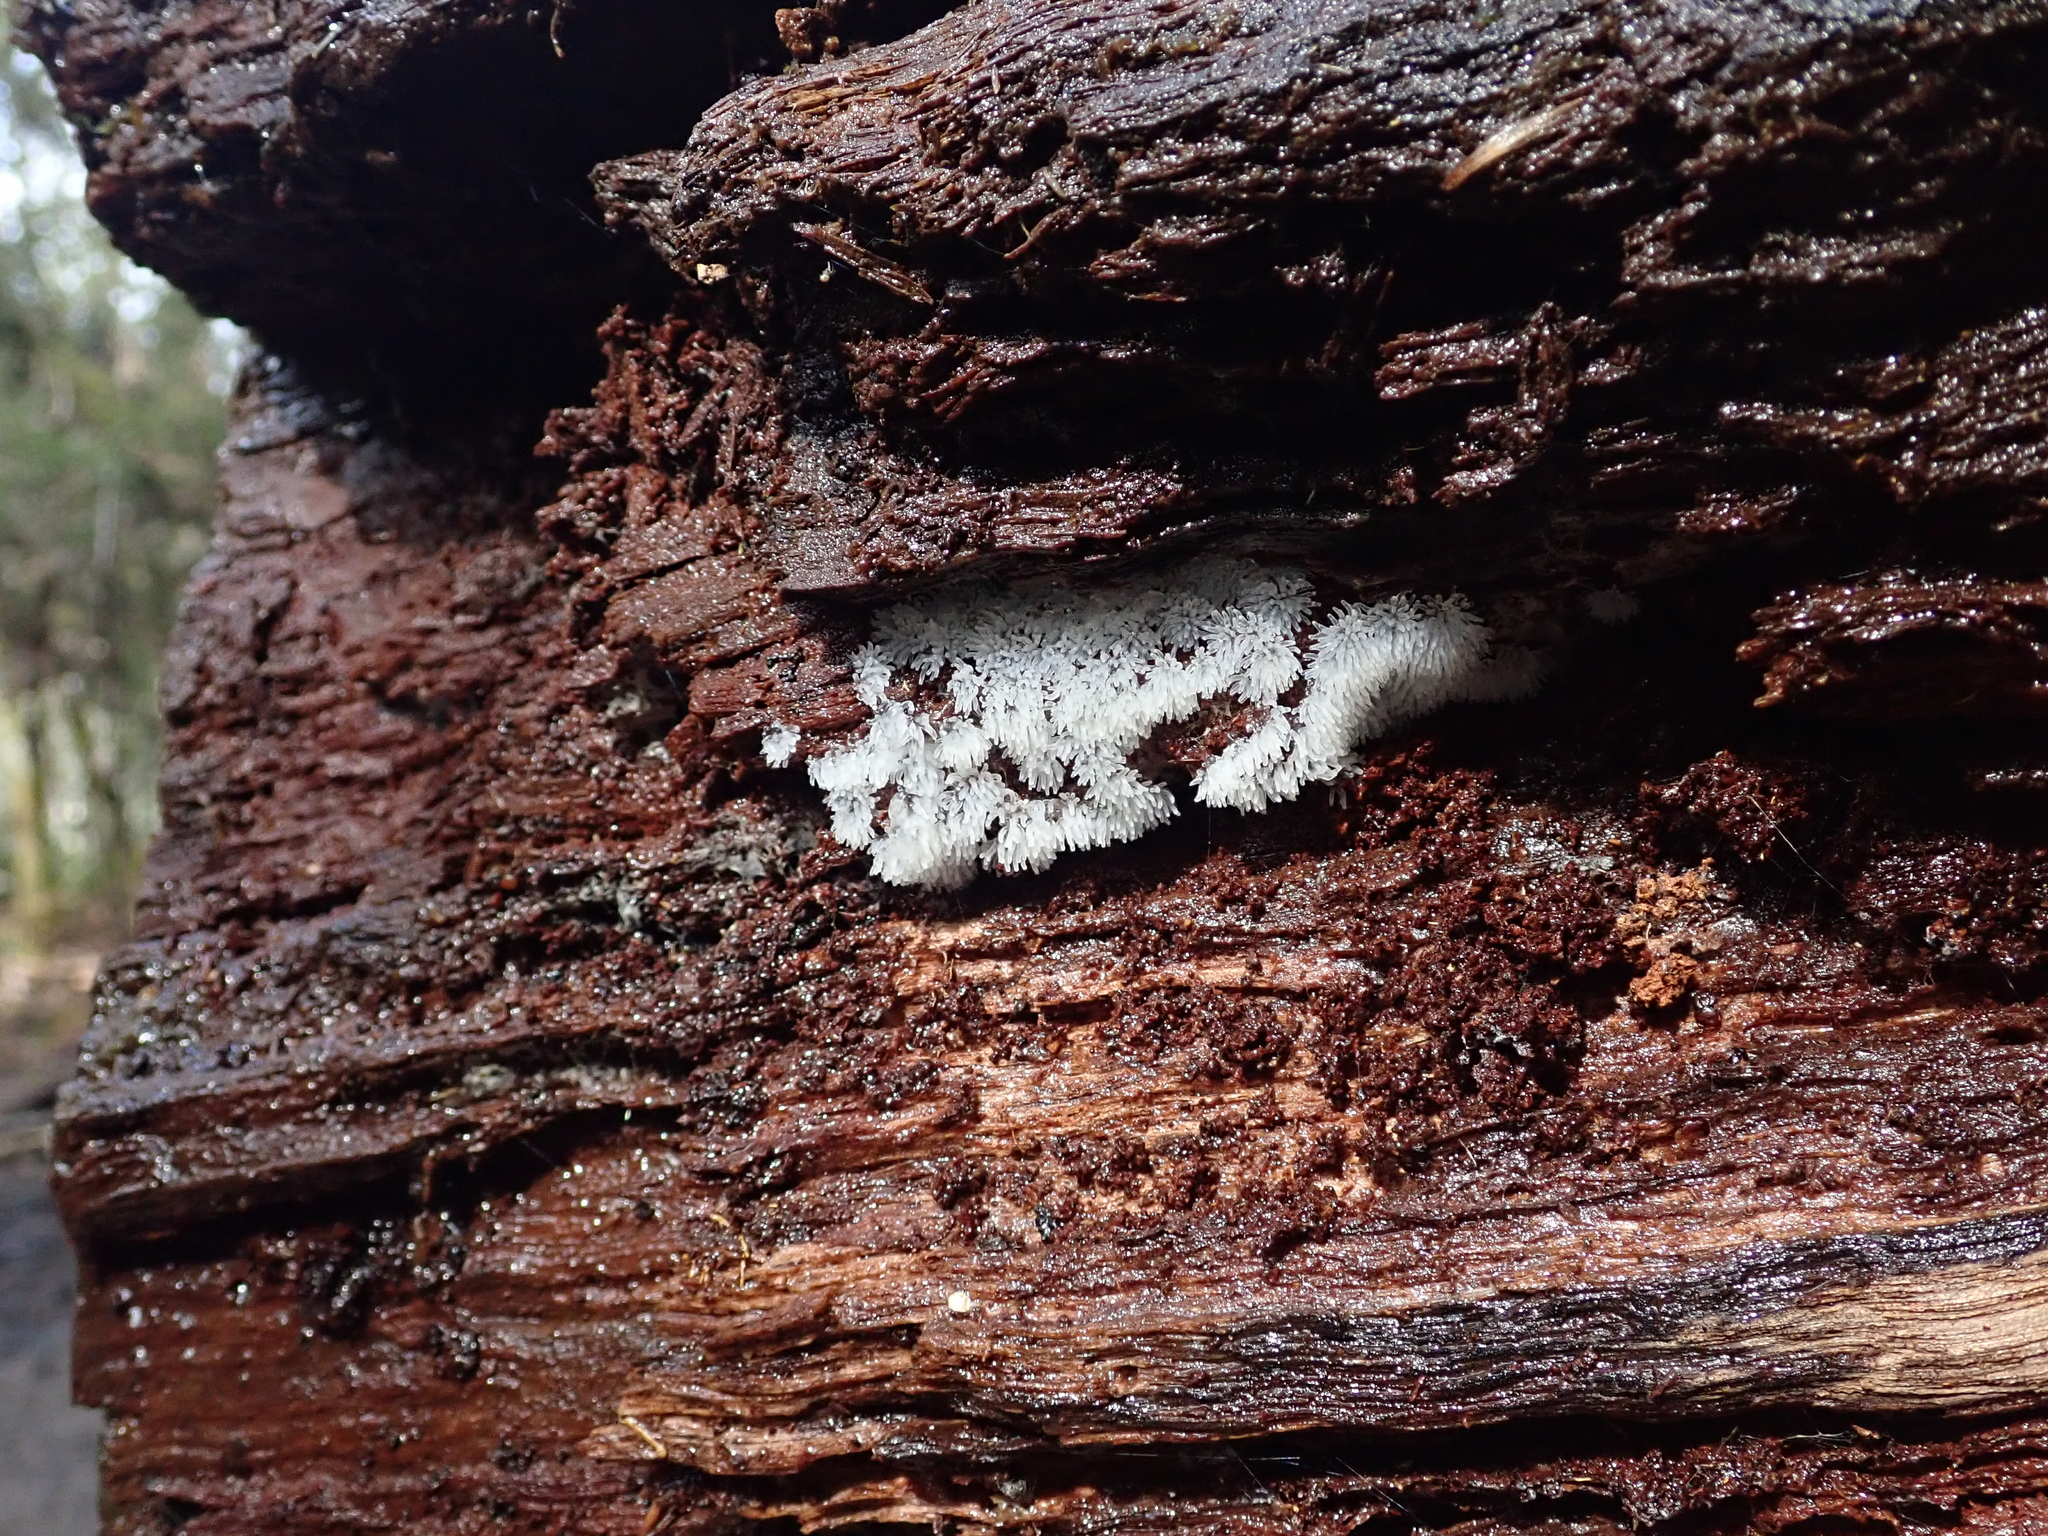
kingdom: Protozoa
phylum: Mycetozoa
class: Protosteliomycetes
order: Ceratiomyxales
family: Ceratiomyxaceae
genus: Ceratiomyxa
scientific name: Ceratiomyxa fruticulosa
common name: Honeycomb coral slime mold
